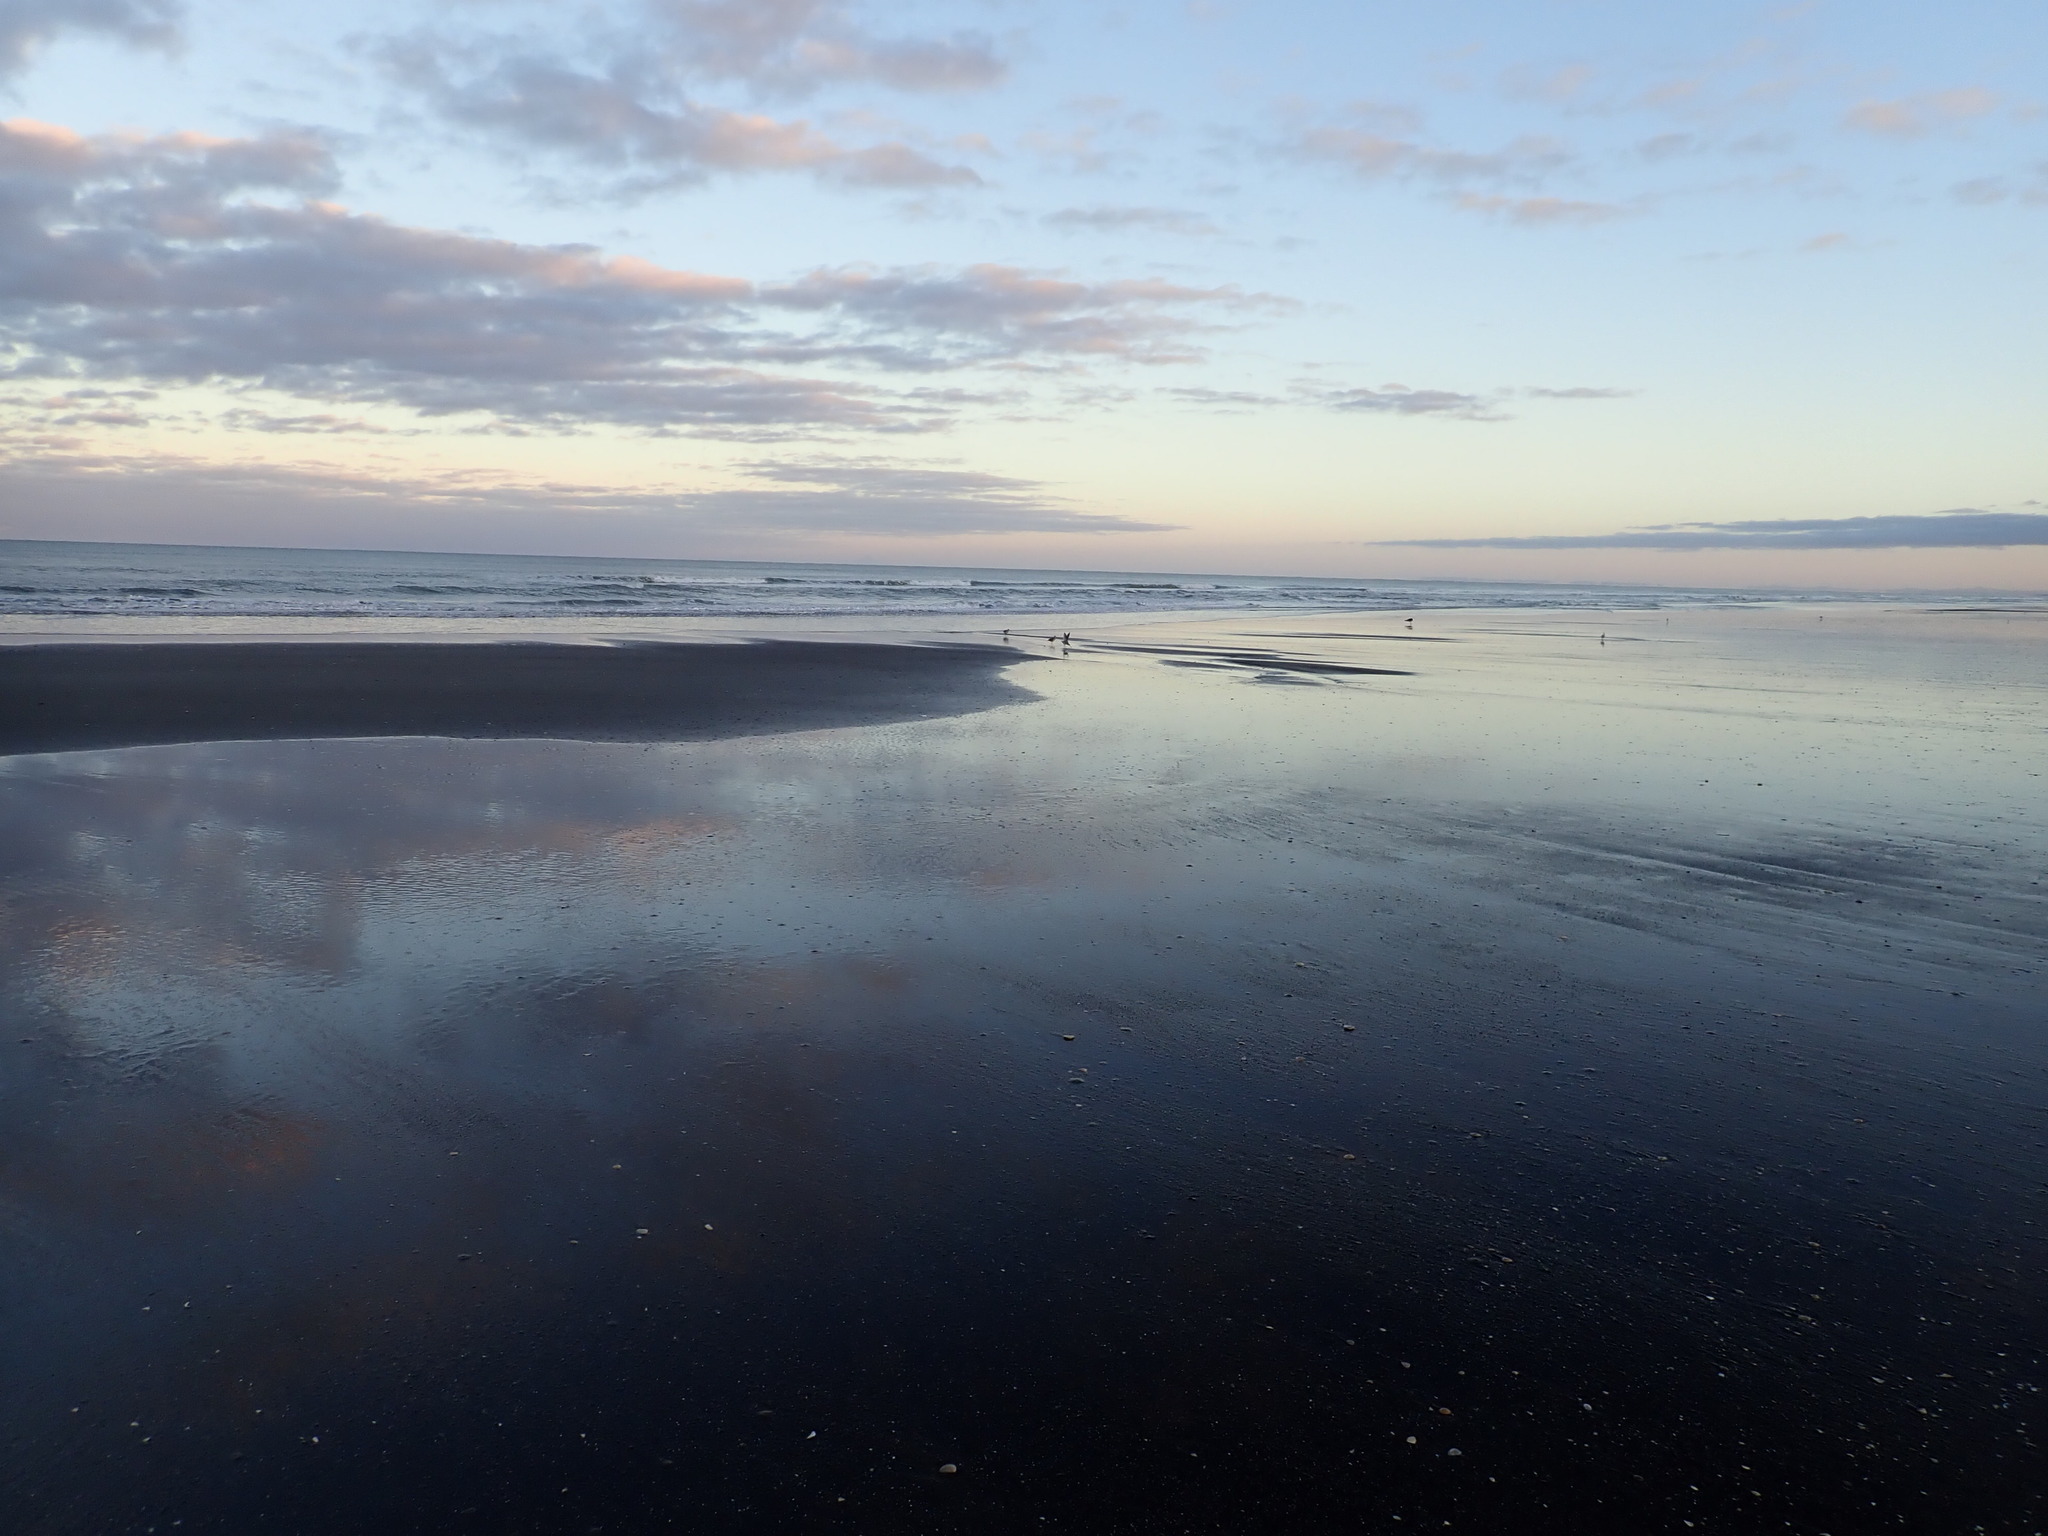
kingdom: Animalia
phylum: Chordata
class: Aves
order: Charadriiformes
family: Scolopacidae
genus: Limosa
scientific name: Limosa lapponica
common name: Bar-tailed godwit
